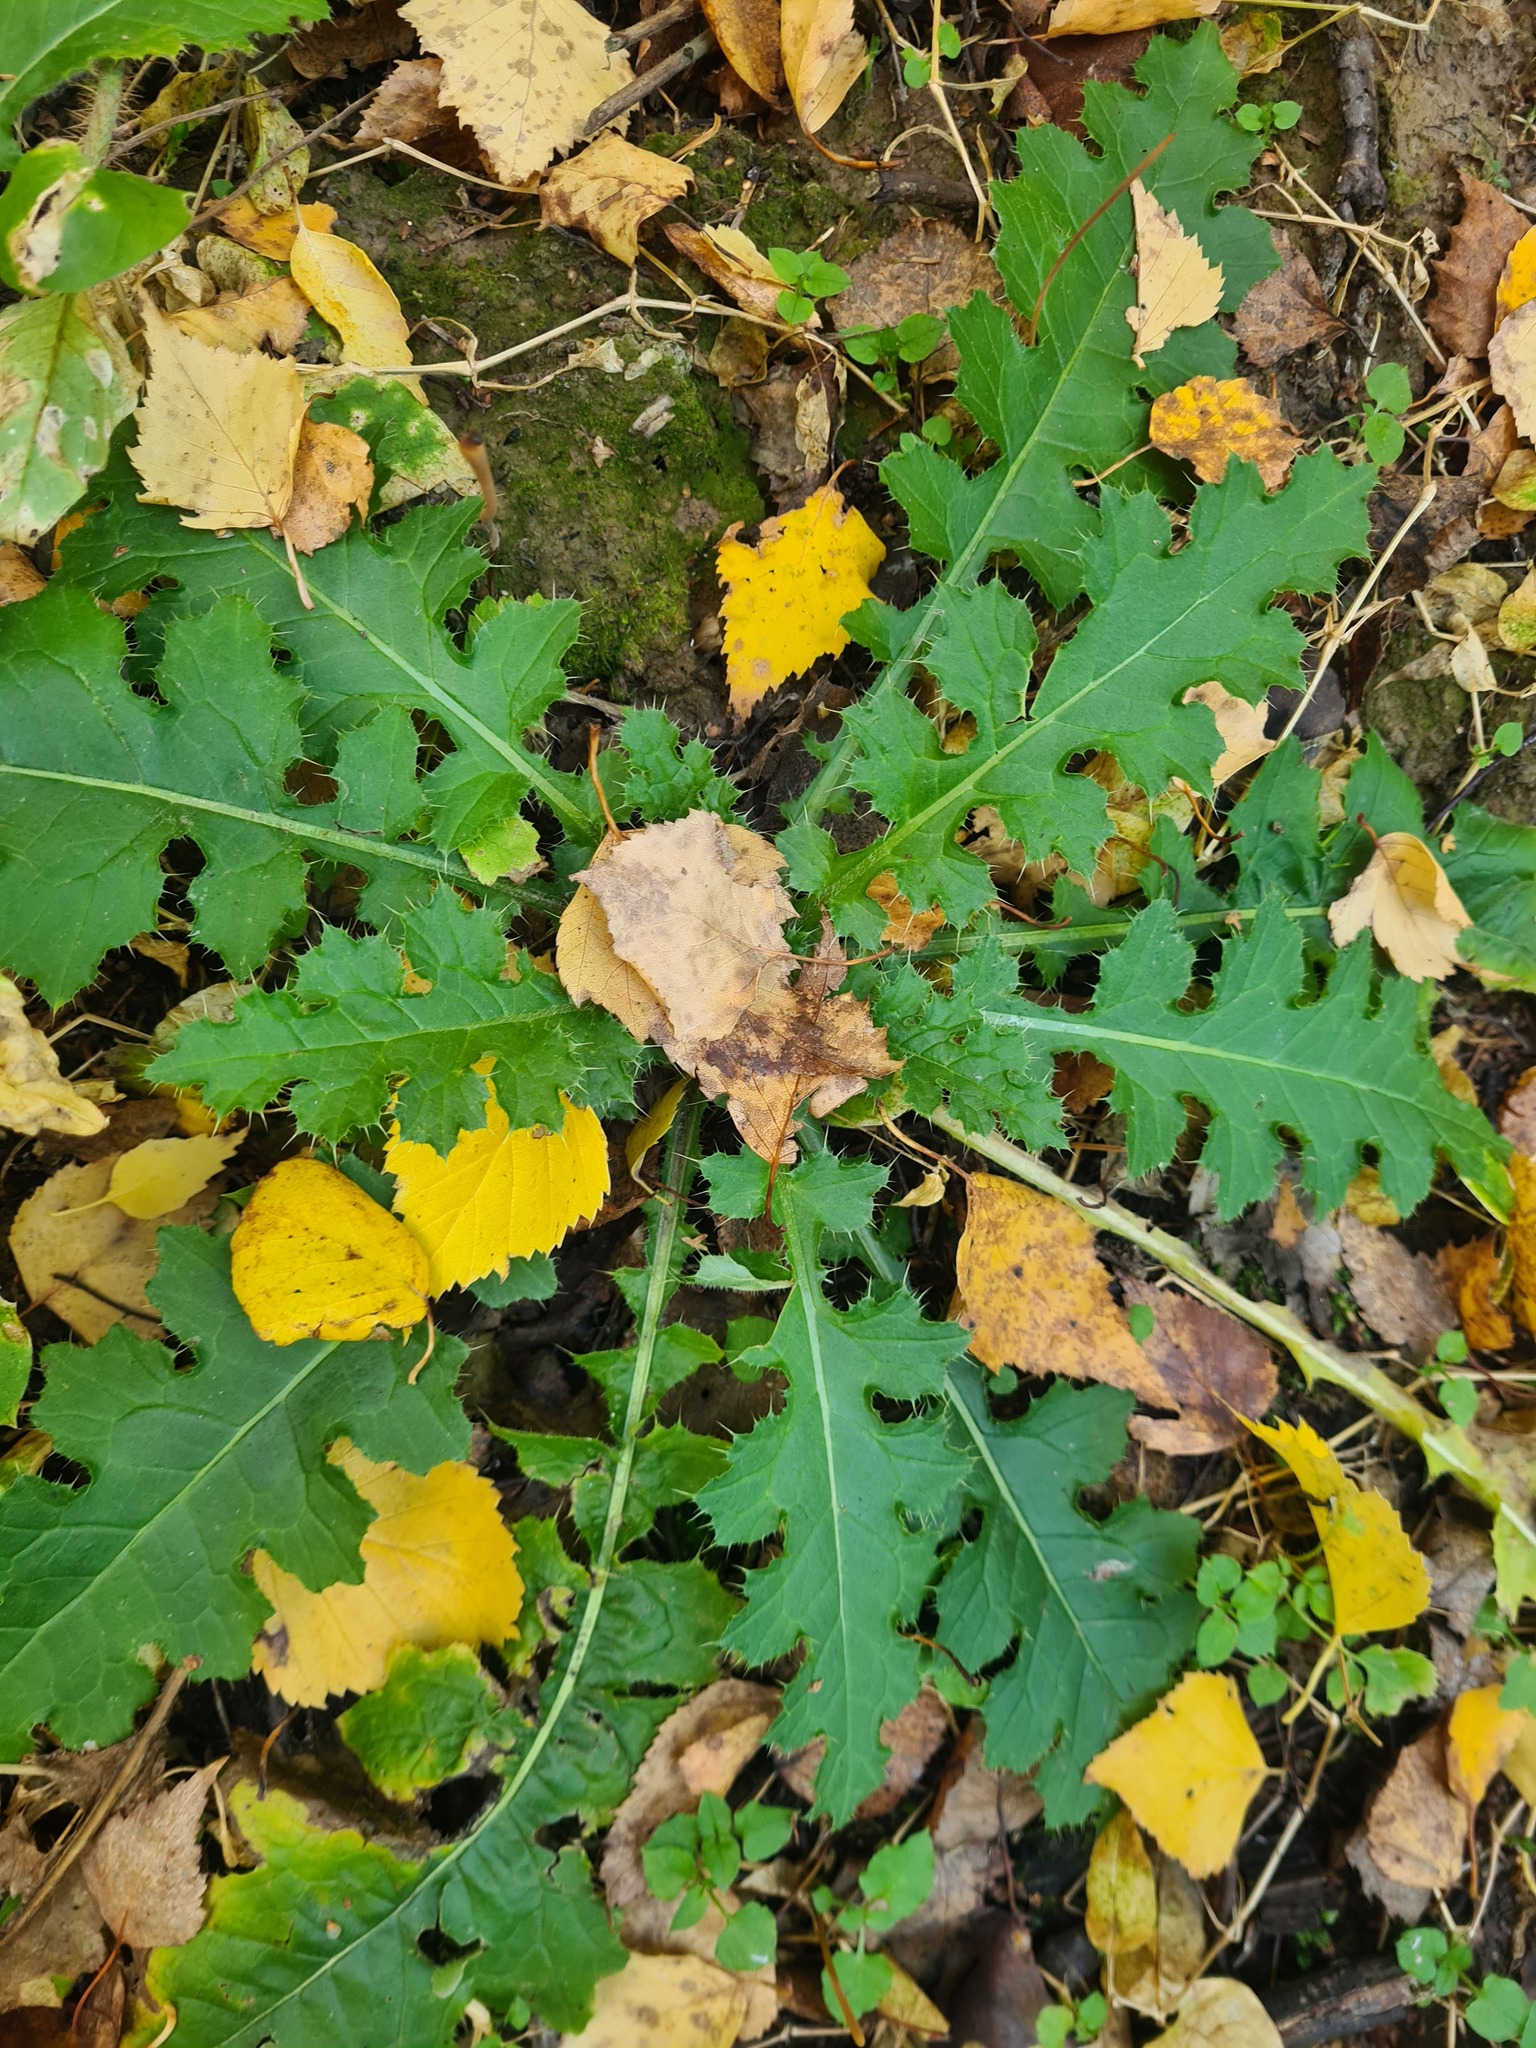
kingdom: Plantae
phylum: Tracheophyta
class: Magnoliopsida
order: Asterales
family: Asteraceae
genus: Carduus
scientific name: Carduus crispus
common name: Welted thistle
